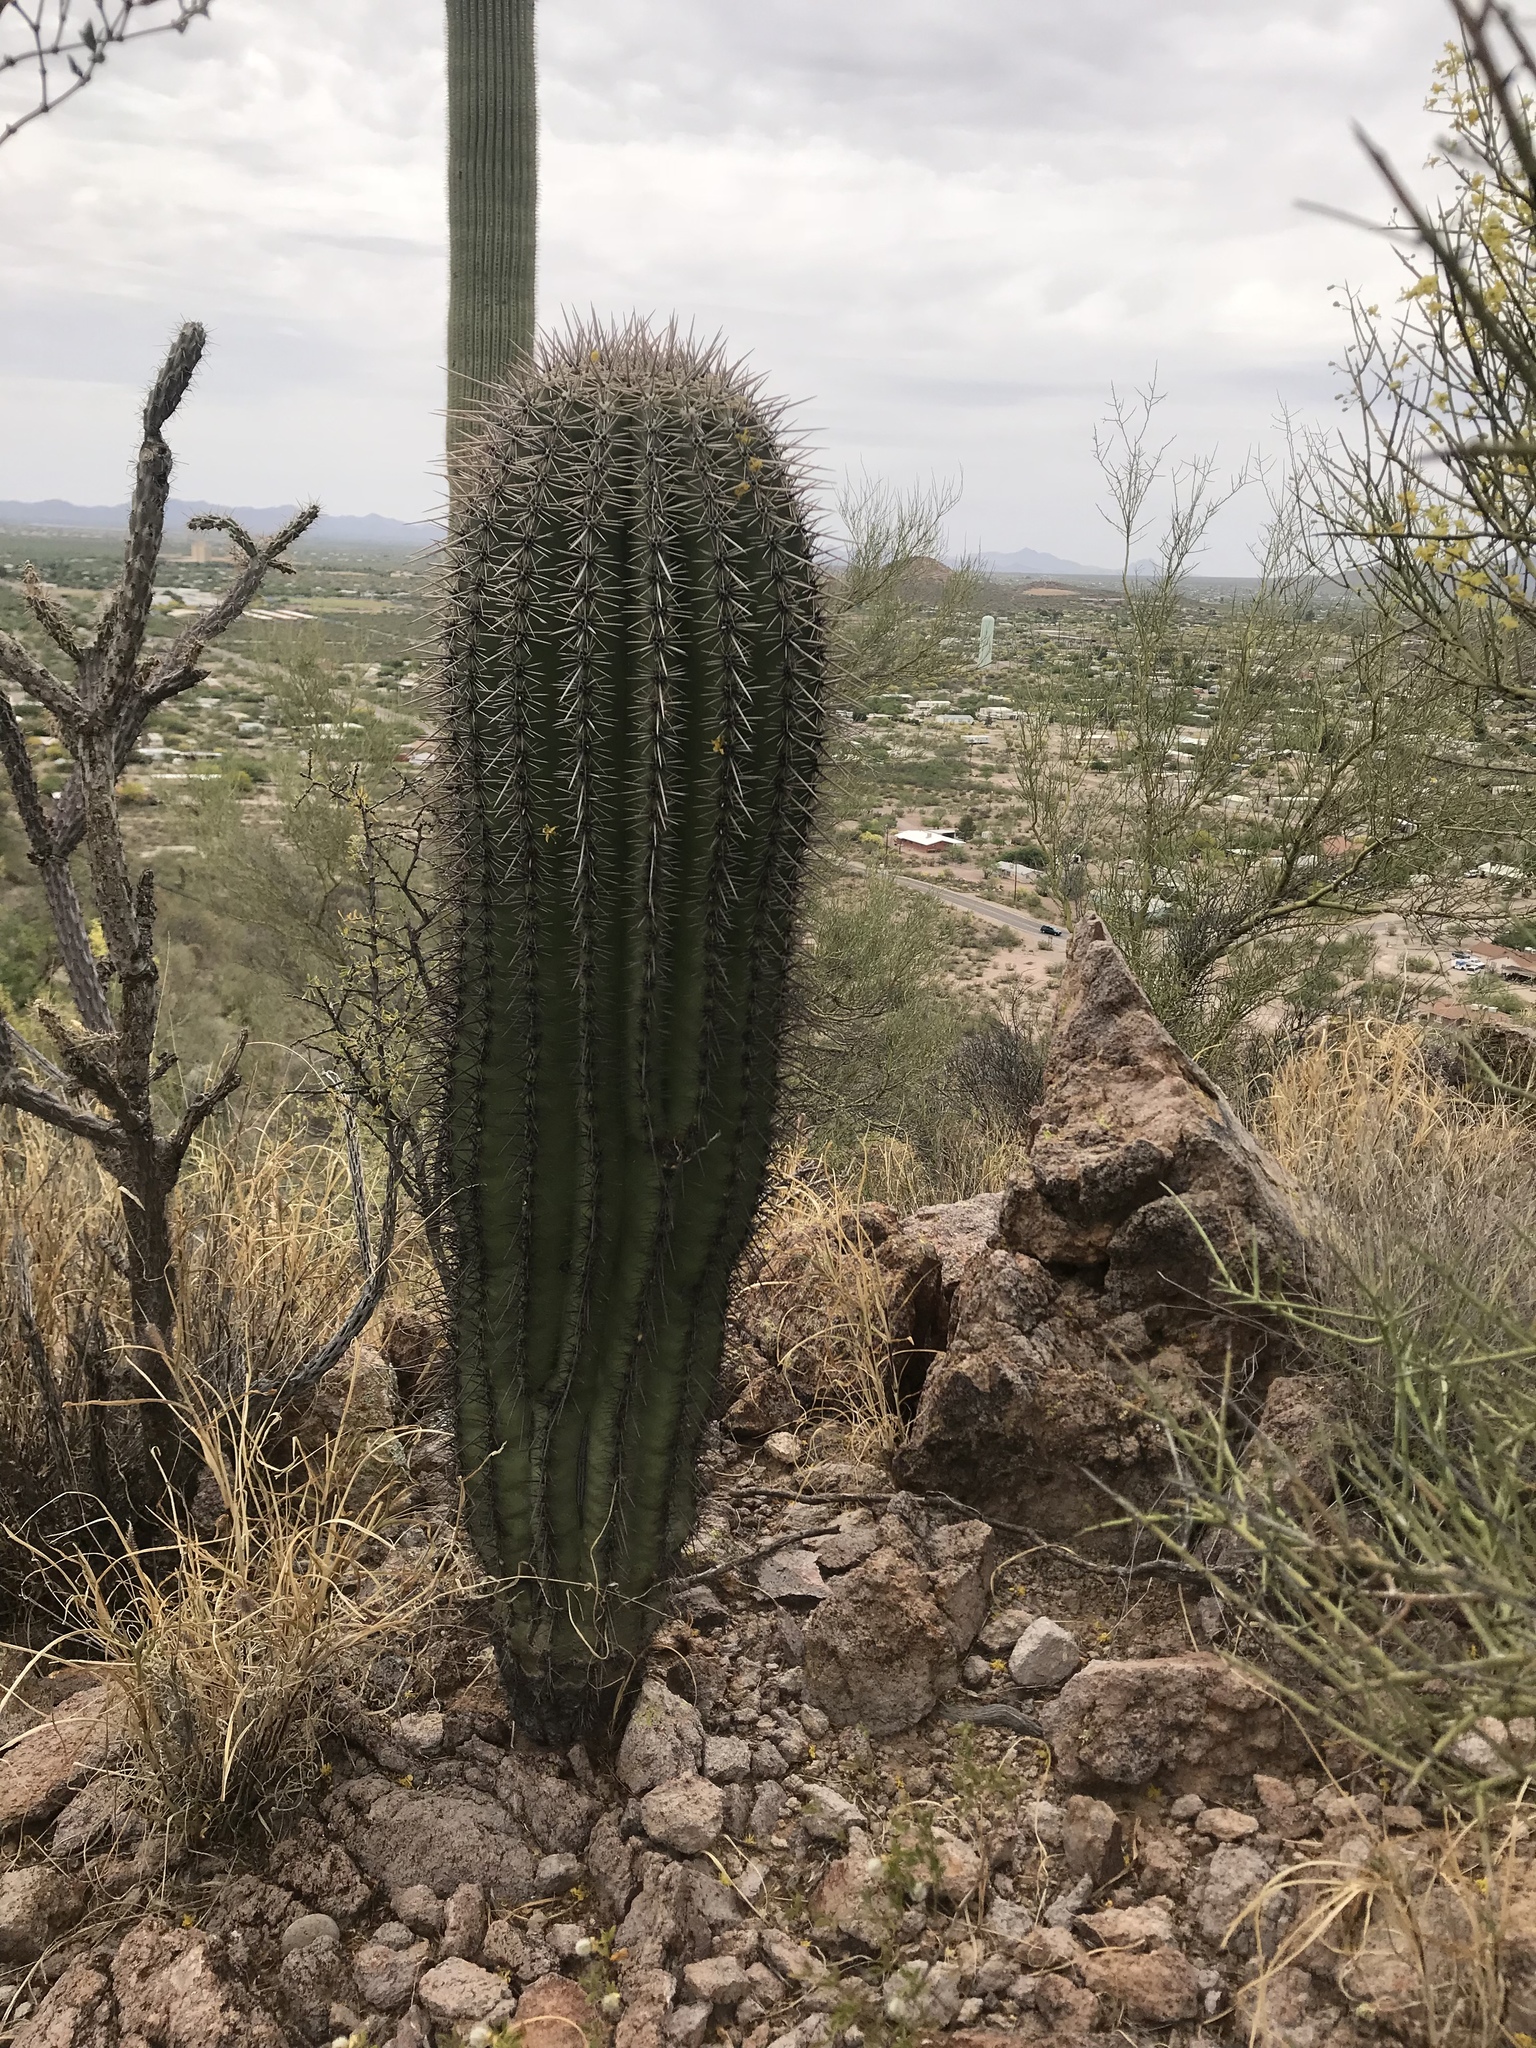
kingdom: Plantae
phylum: Tracheophyta
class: Magnoliopsida
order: Caryophyllales
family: Cactaceae
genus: Carnegiea
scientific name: Carnegiea gigantea
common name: Saguaro
